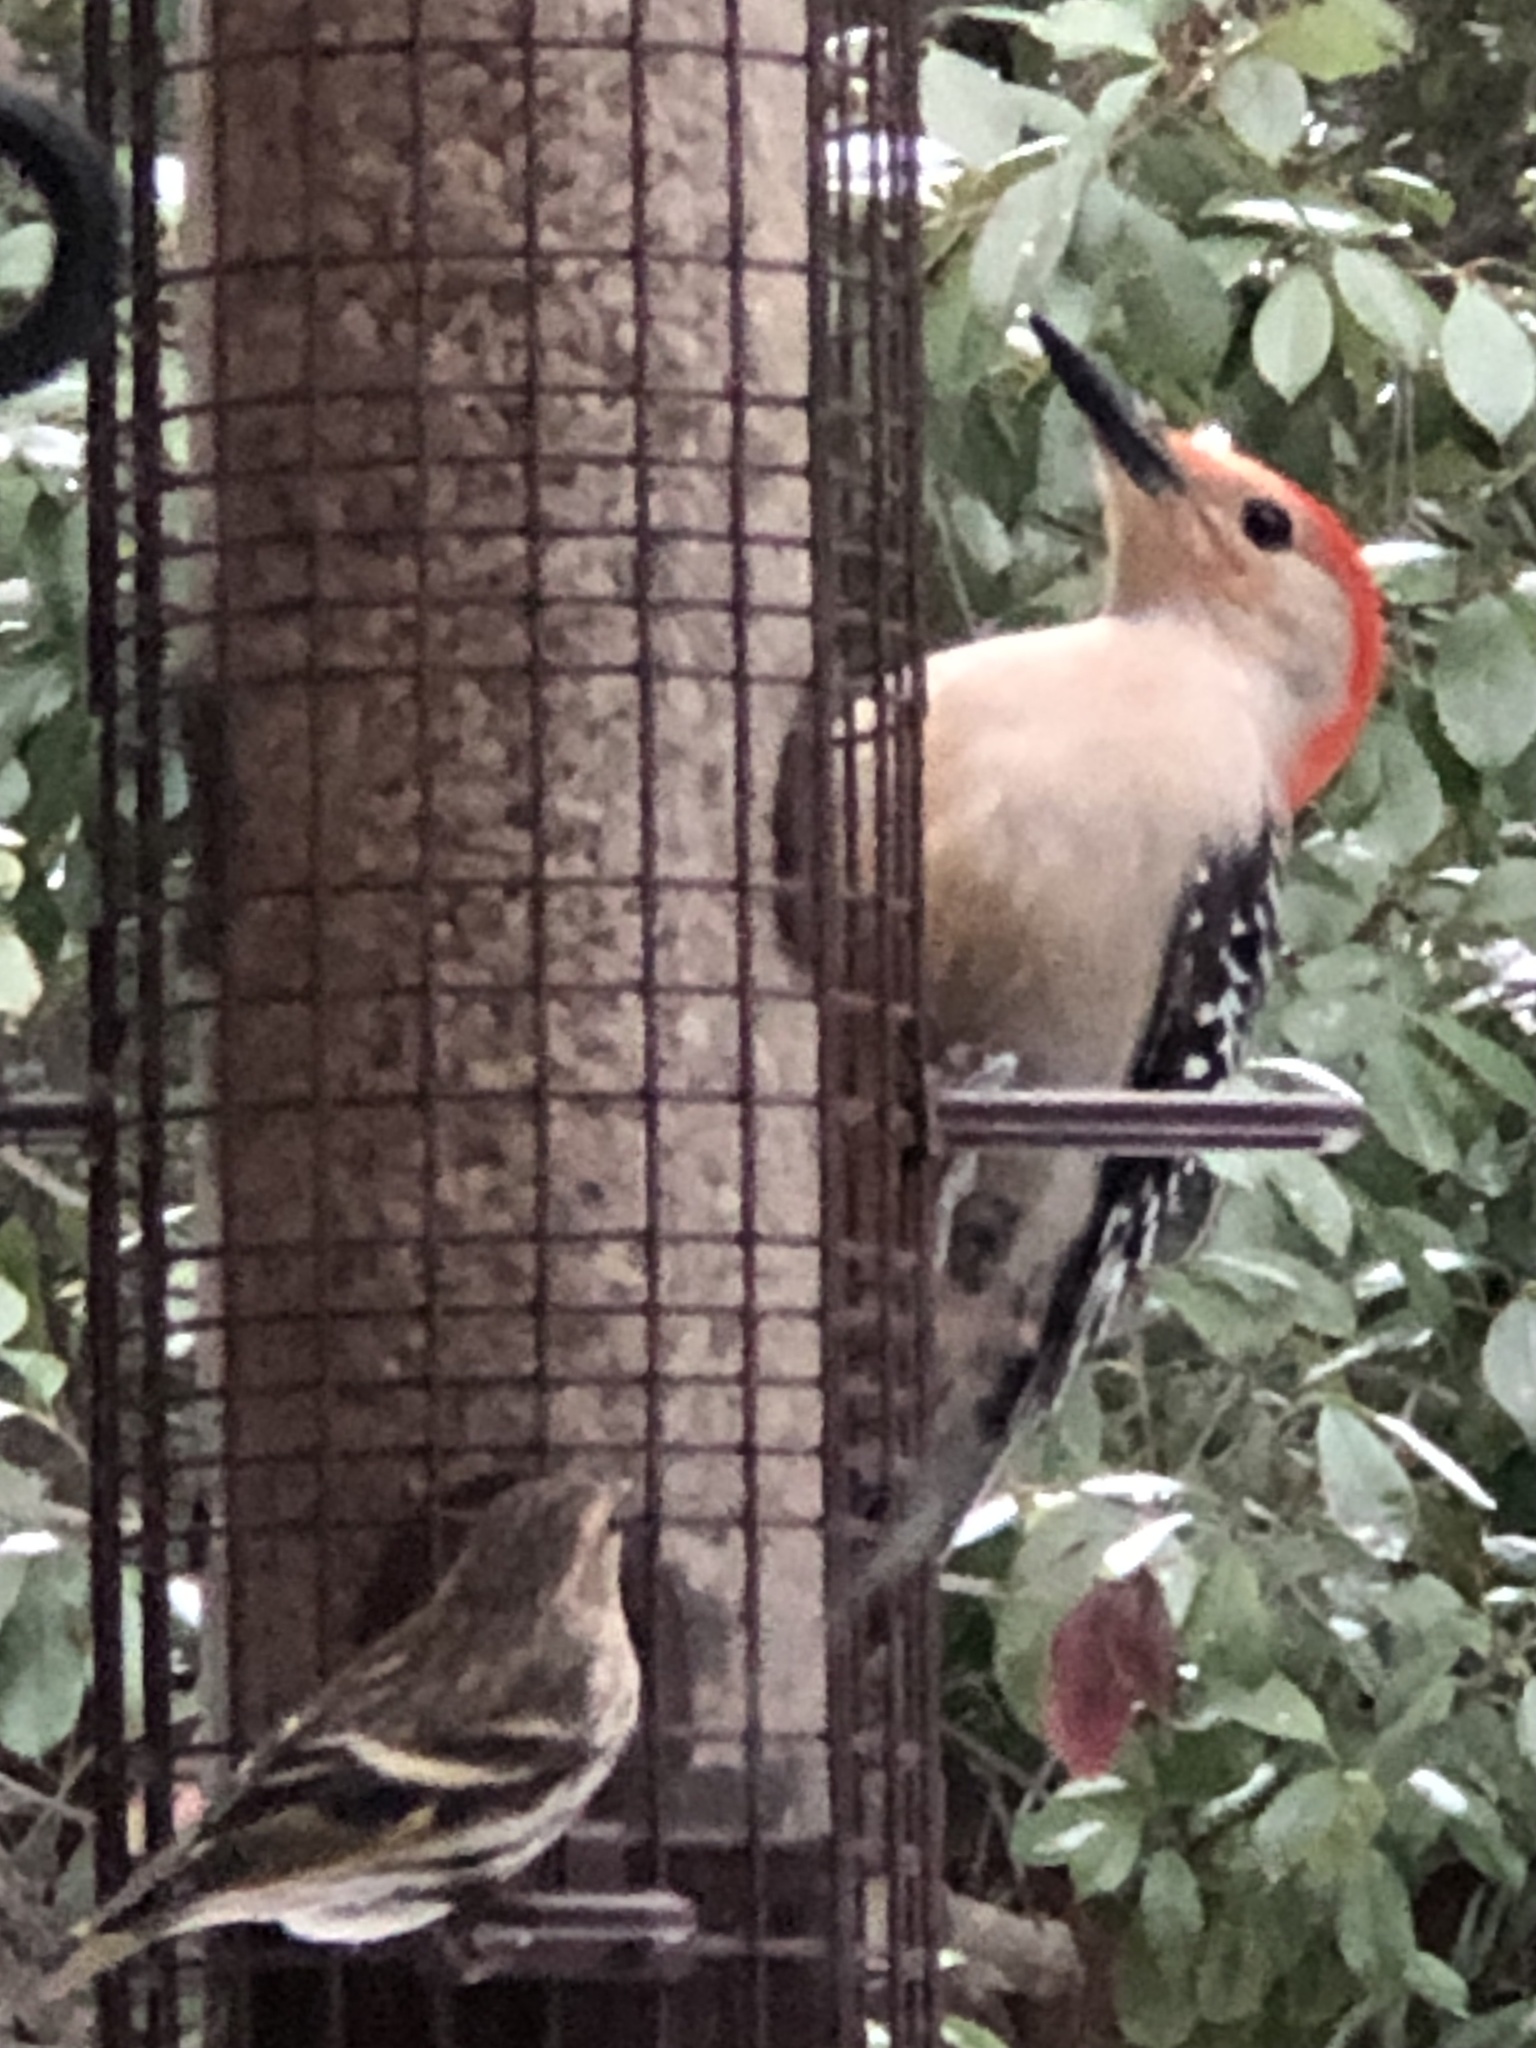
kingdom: Animalia
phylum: Chordata
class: Aves
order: Piciformes
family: Picidae
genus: Melanerpes
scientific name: Melanerpes carolinus
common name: Red-bellied woodpecker
